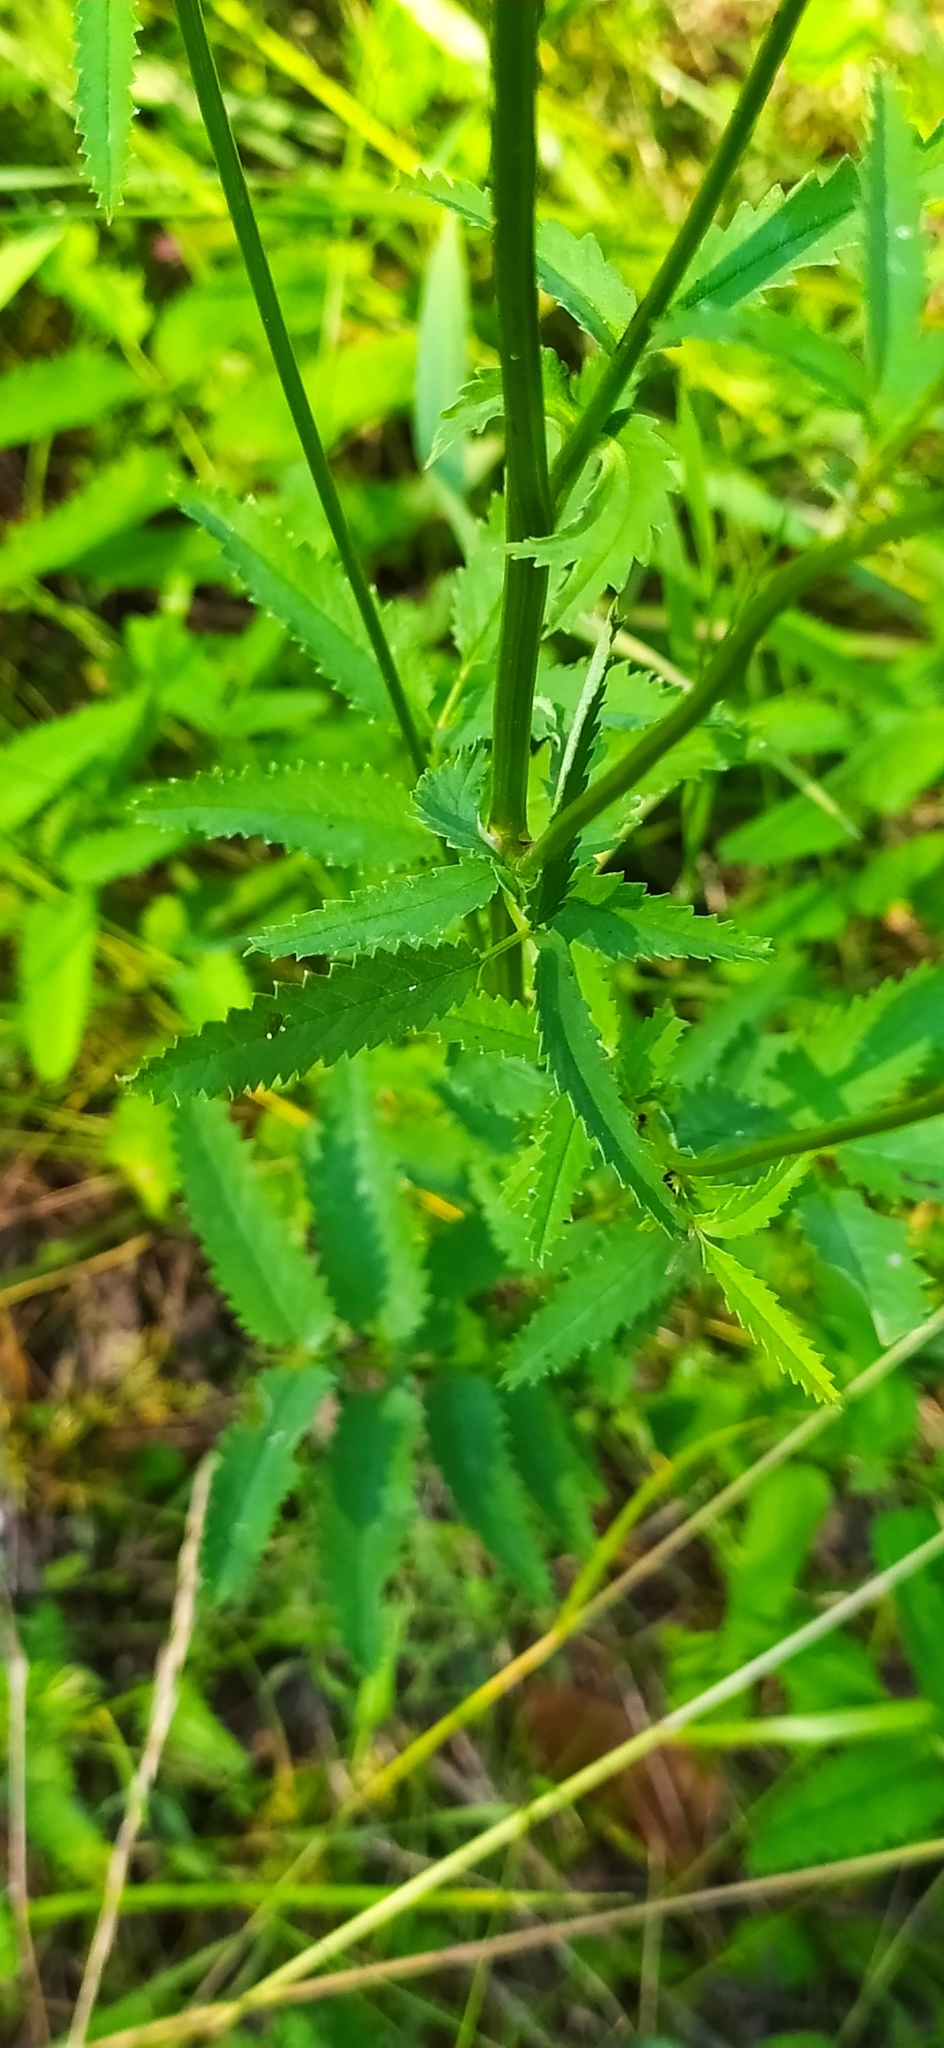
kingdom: Plantae
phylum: Tracheophyta
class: Magnoliopsida
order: Rosales
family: Rosaceae
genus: Sanguisorba
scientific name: Sanguisorba officinalis
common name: Great burnet
